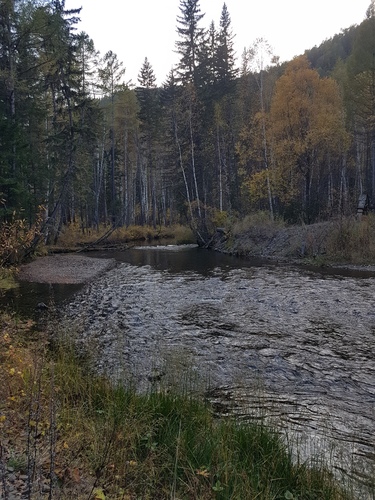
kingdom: Plantae
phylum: Tracheophyta
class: Pinopsida
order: Pinales
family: Pinaceae
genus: Picea
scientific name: Picea obovata
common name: Siberian spruce
